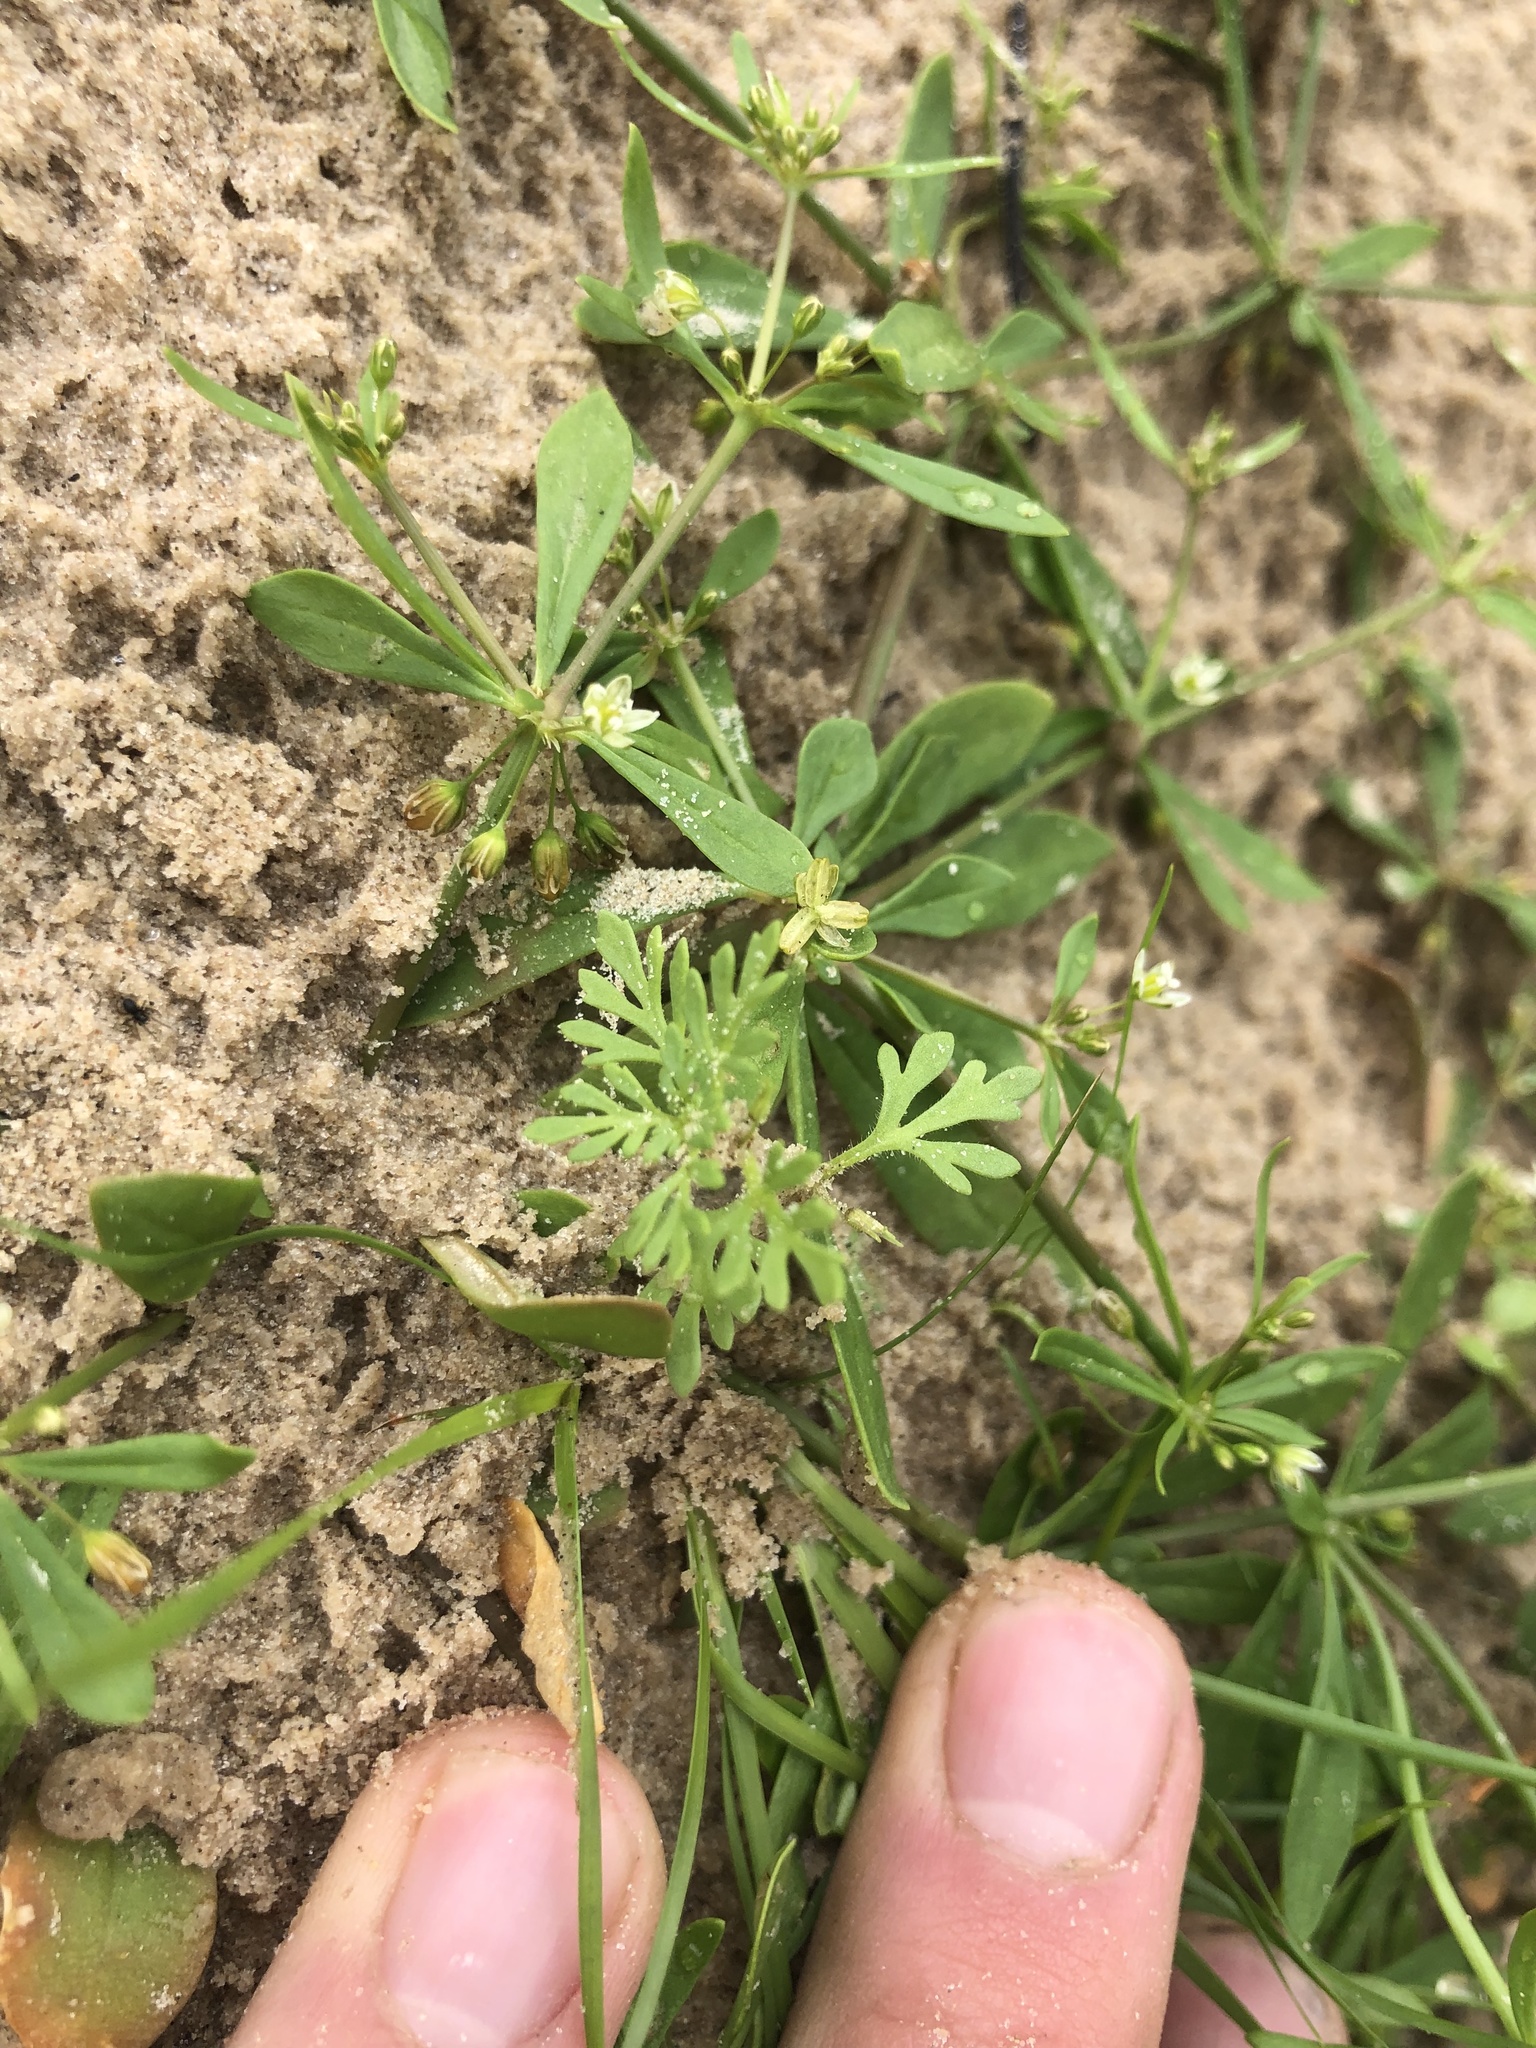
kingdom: Plantae
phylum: Tracheophyta
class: Magnoliopsida
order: Lamiales
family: Plantaginaceae
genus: Leucospora
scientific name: Leucospora multifida
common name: Narrow-leaf paleseed
